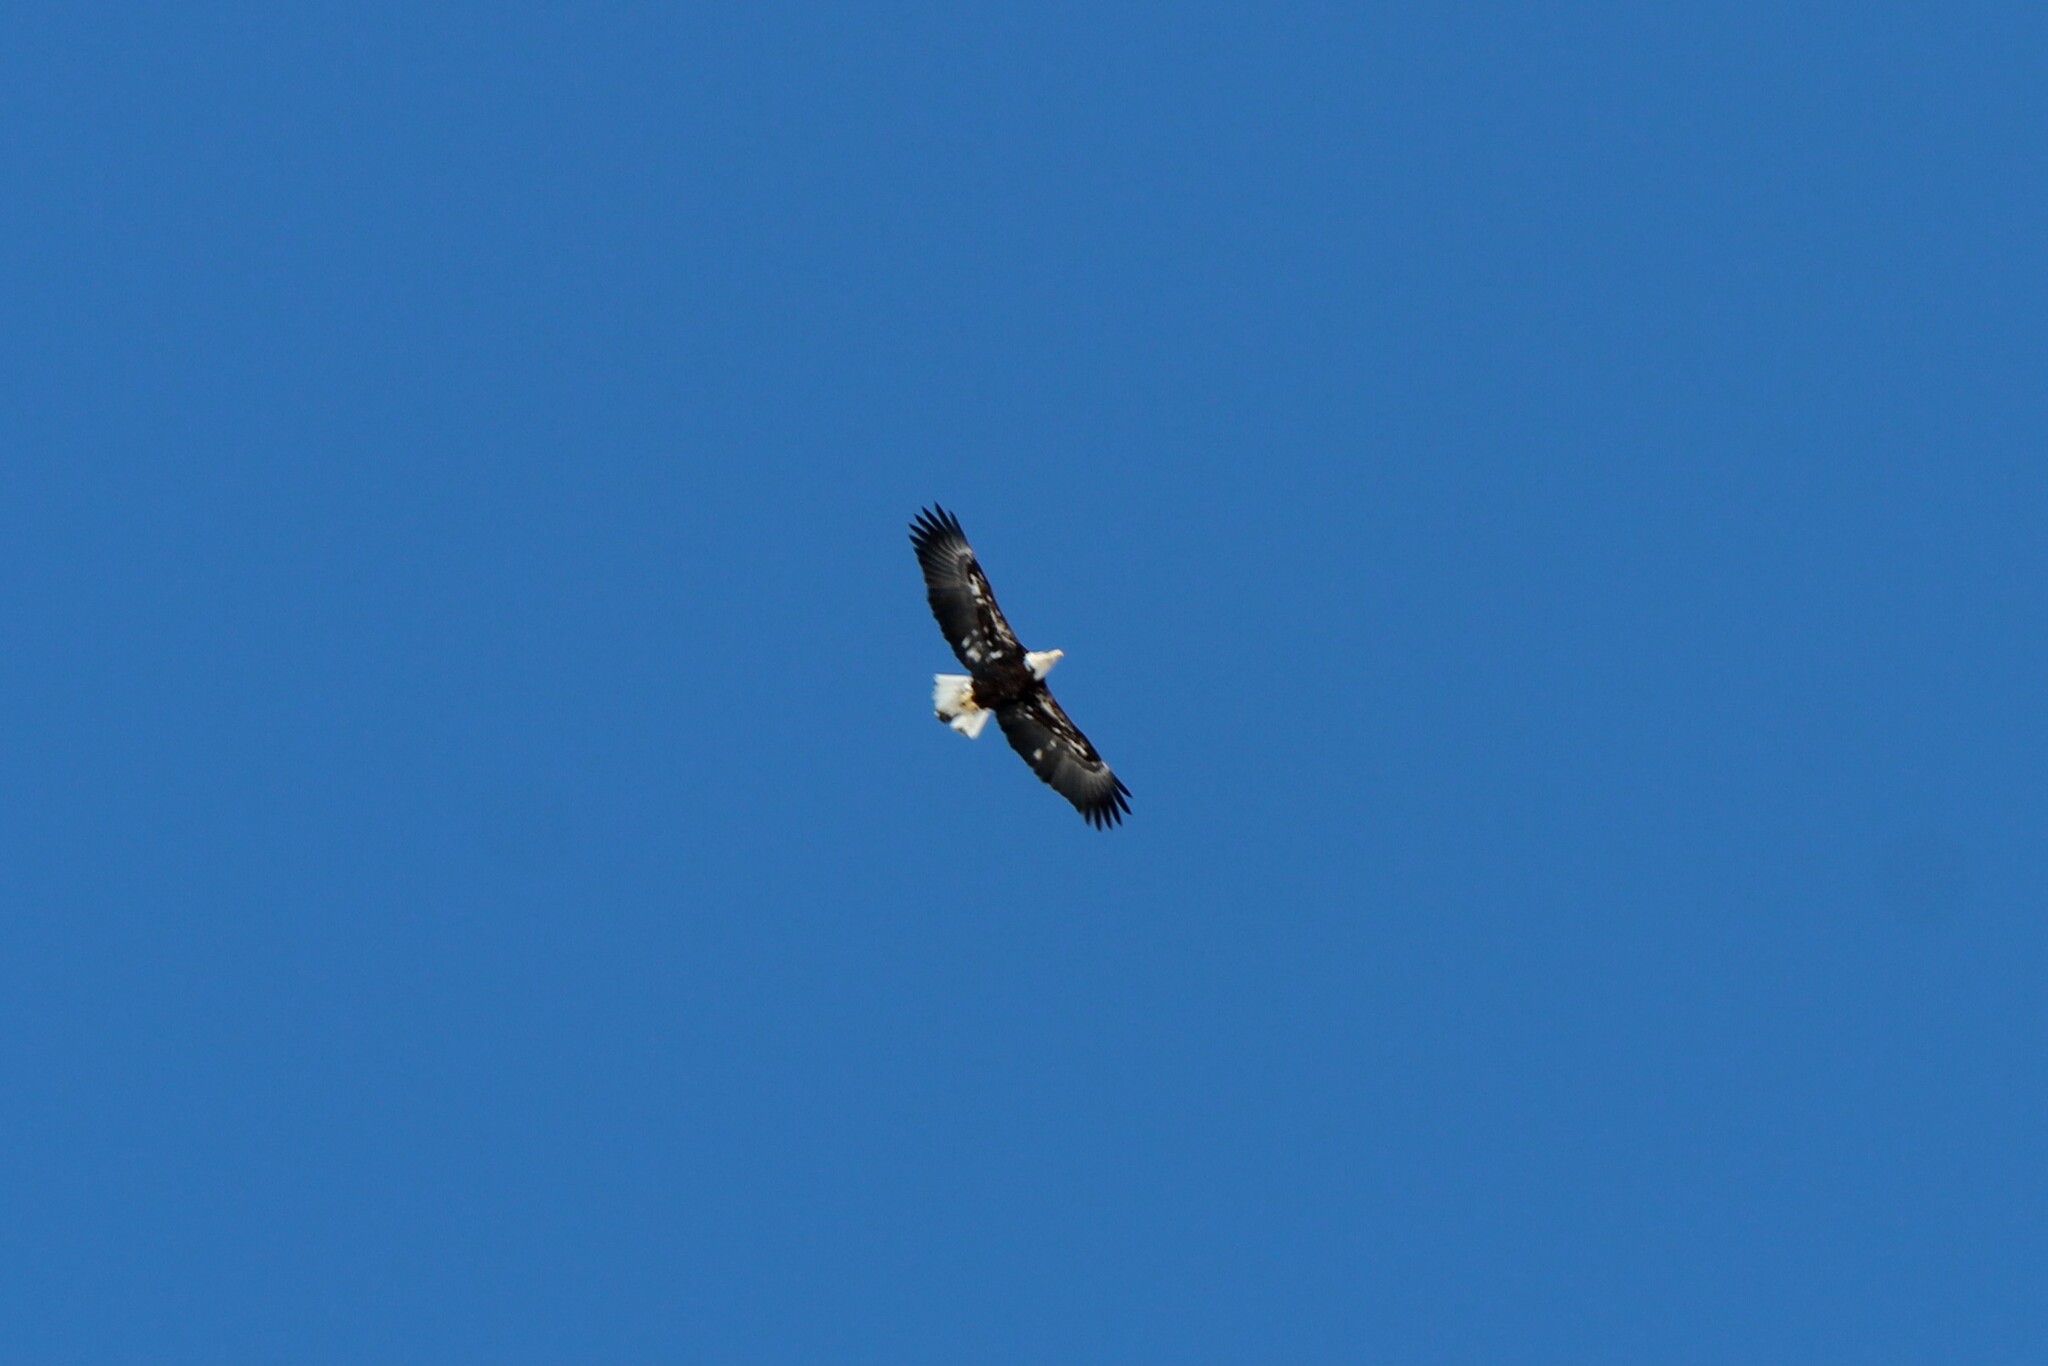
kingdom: Animalia
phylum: Chordata
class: Aves
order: Accipitriformes
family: Accipitridae
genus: Haliaeetus
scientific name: Haliaeetus leucocephalus
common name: Bald eagle
